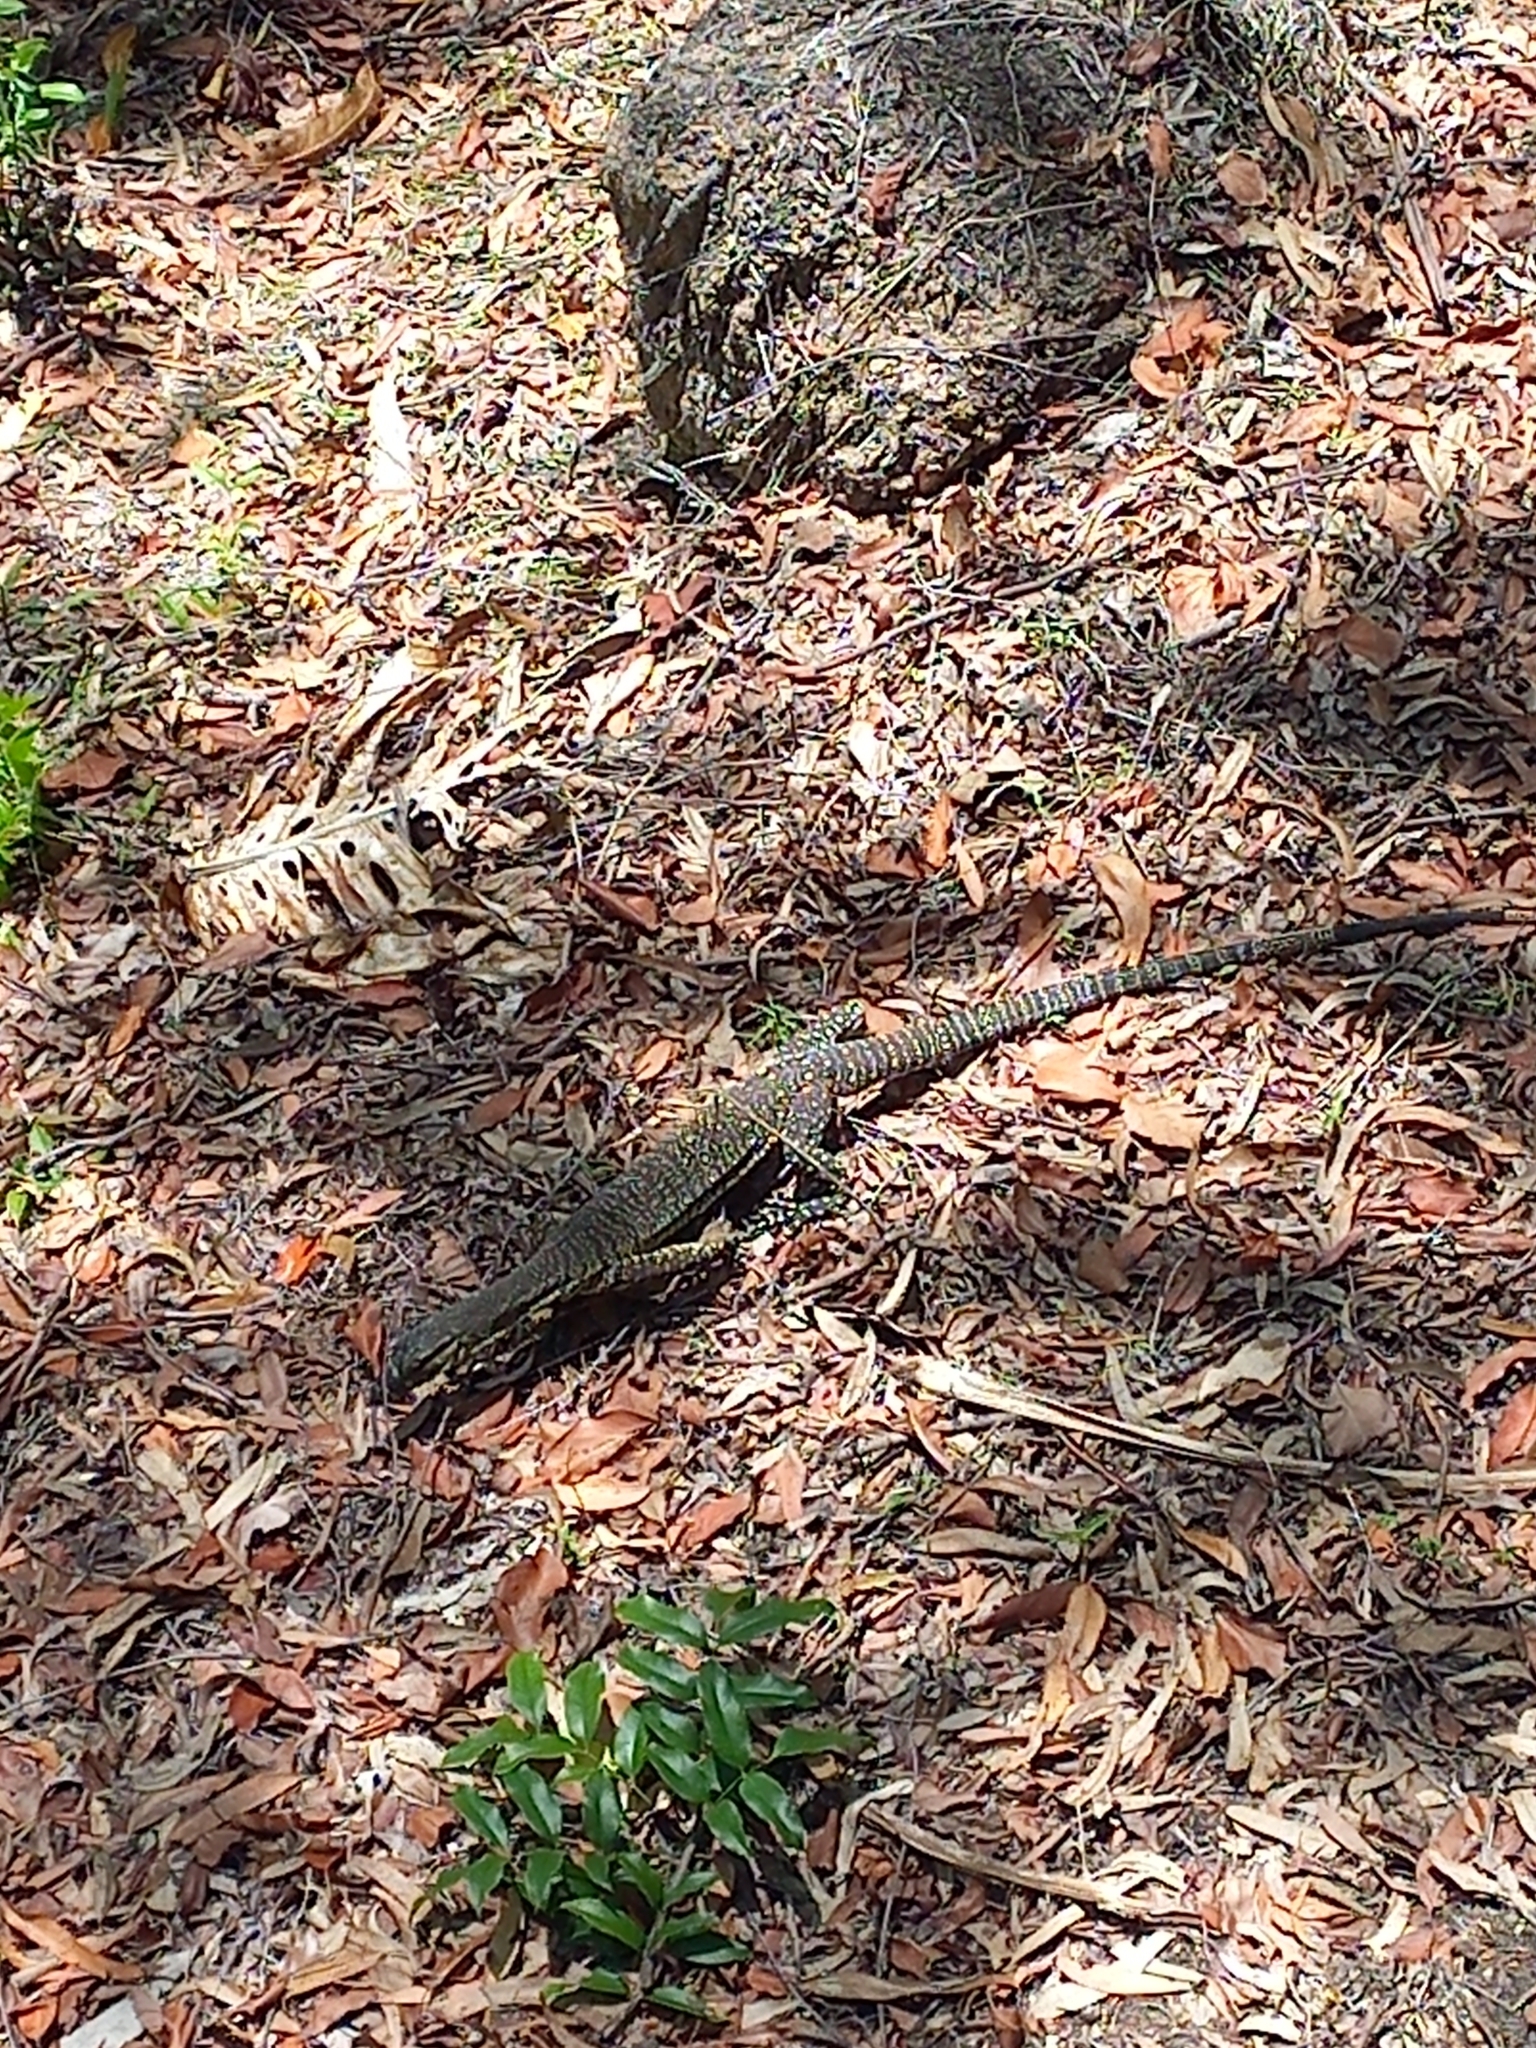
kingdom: Animalia
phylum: Chordata
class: Squamata
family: Varanidae
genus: Varanus
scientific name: Varanus varius
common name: Lace monitor
